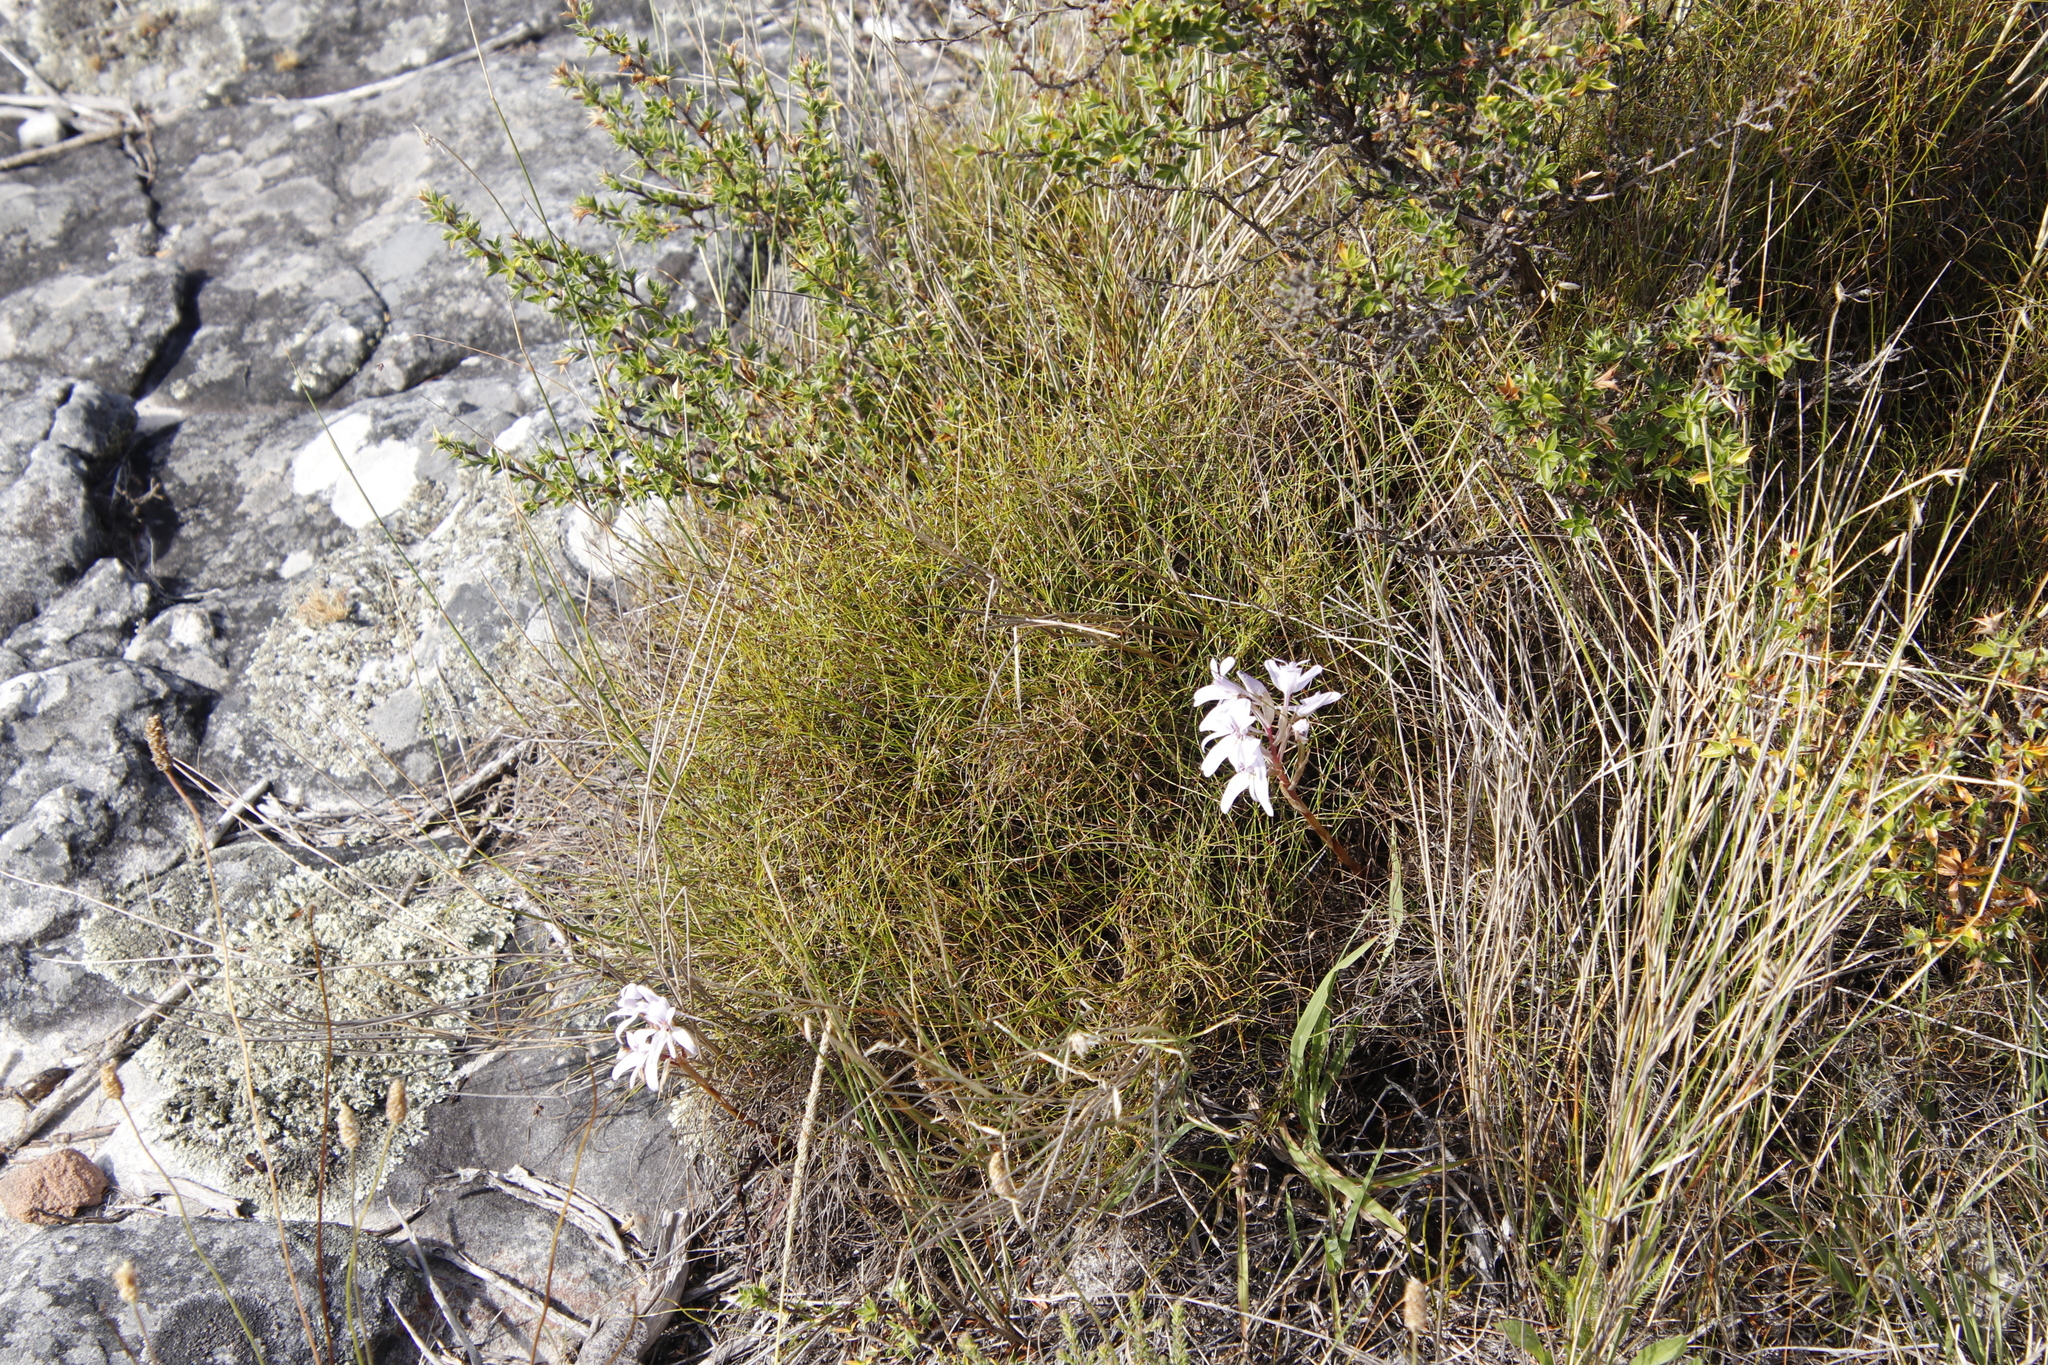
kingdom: Plantae
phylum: Tracheophyta
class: Liliopsida
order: Asparagales
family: Orchidaceae
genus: Disa
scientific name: Disa harveyana
